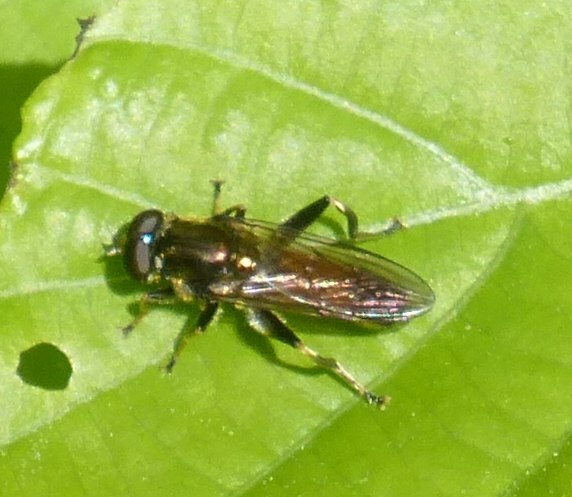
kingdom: Animalia
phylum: Arthropoda
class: Insecta
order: Diptera
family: Syrphidae
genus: Xylota
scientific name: Xylota segnis
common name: Brown-toed forest fly
